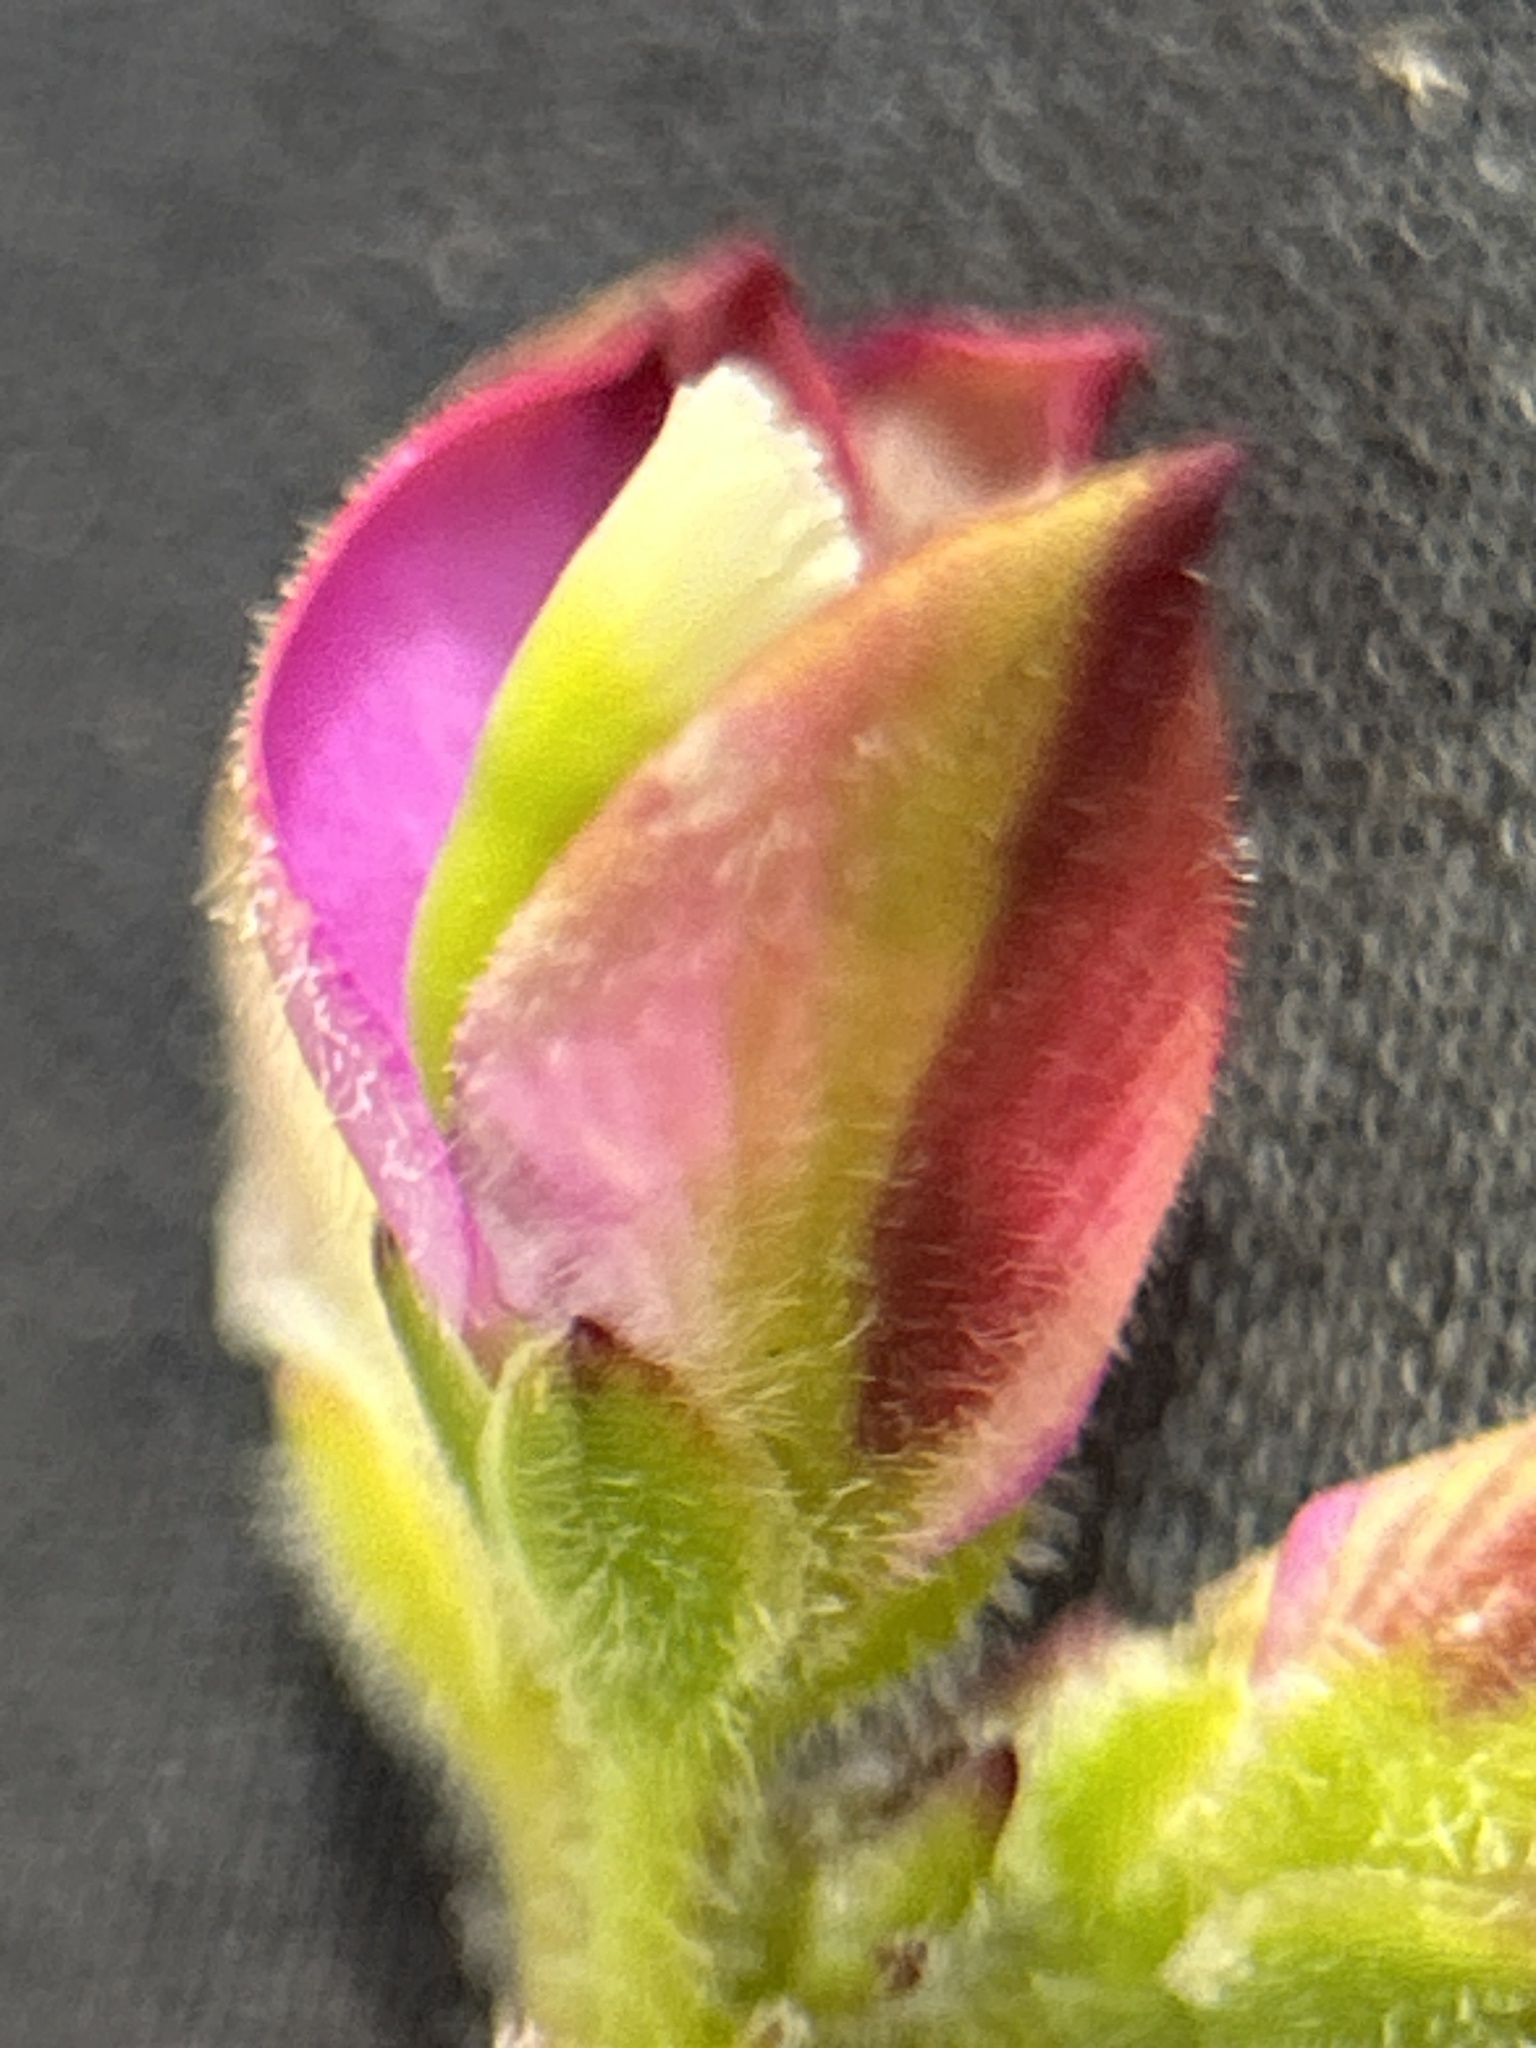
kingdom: Plantae
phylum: Tracheophyta
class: Magnoliopsida
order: Fabales
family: Polygalaceae
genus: Polygala
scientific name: Polygala pubiflora
